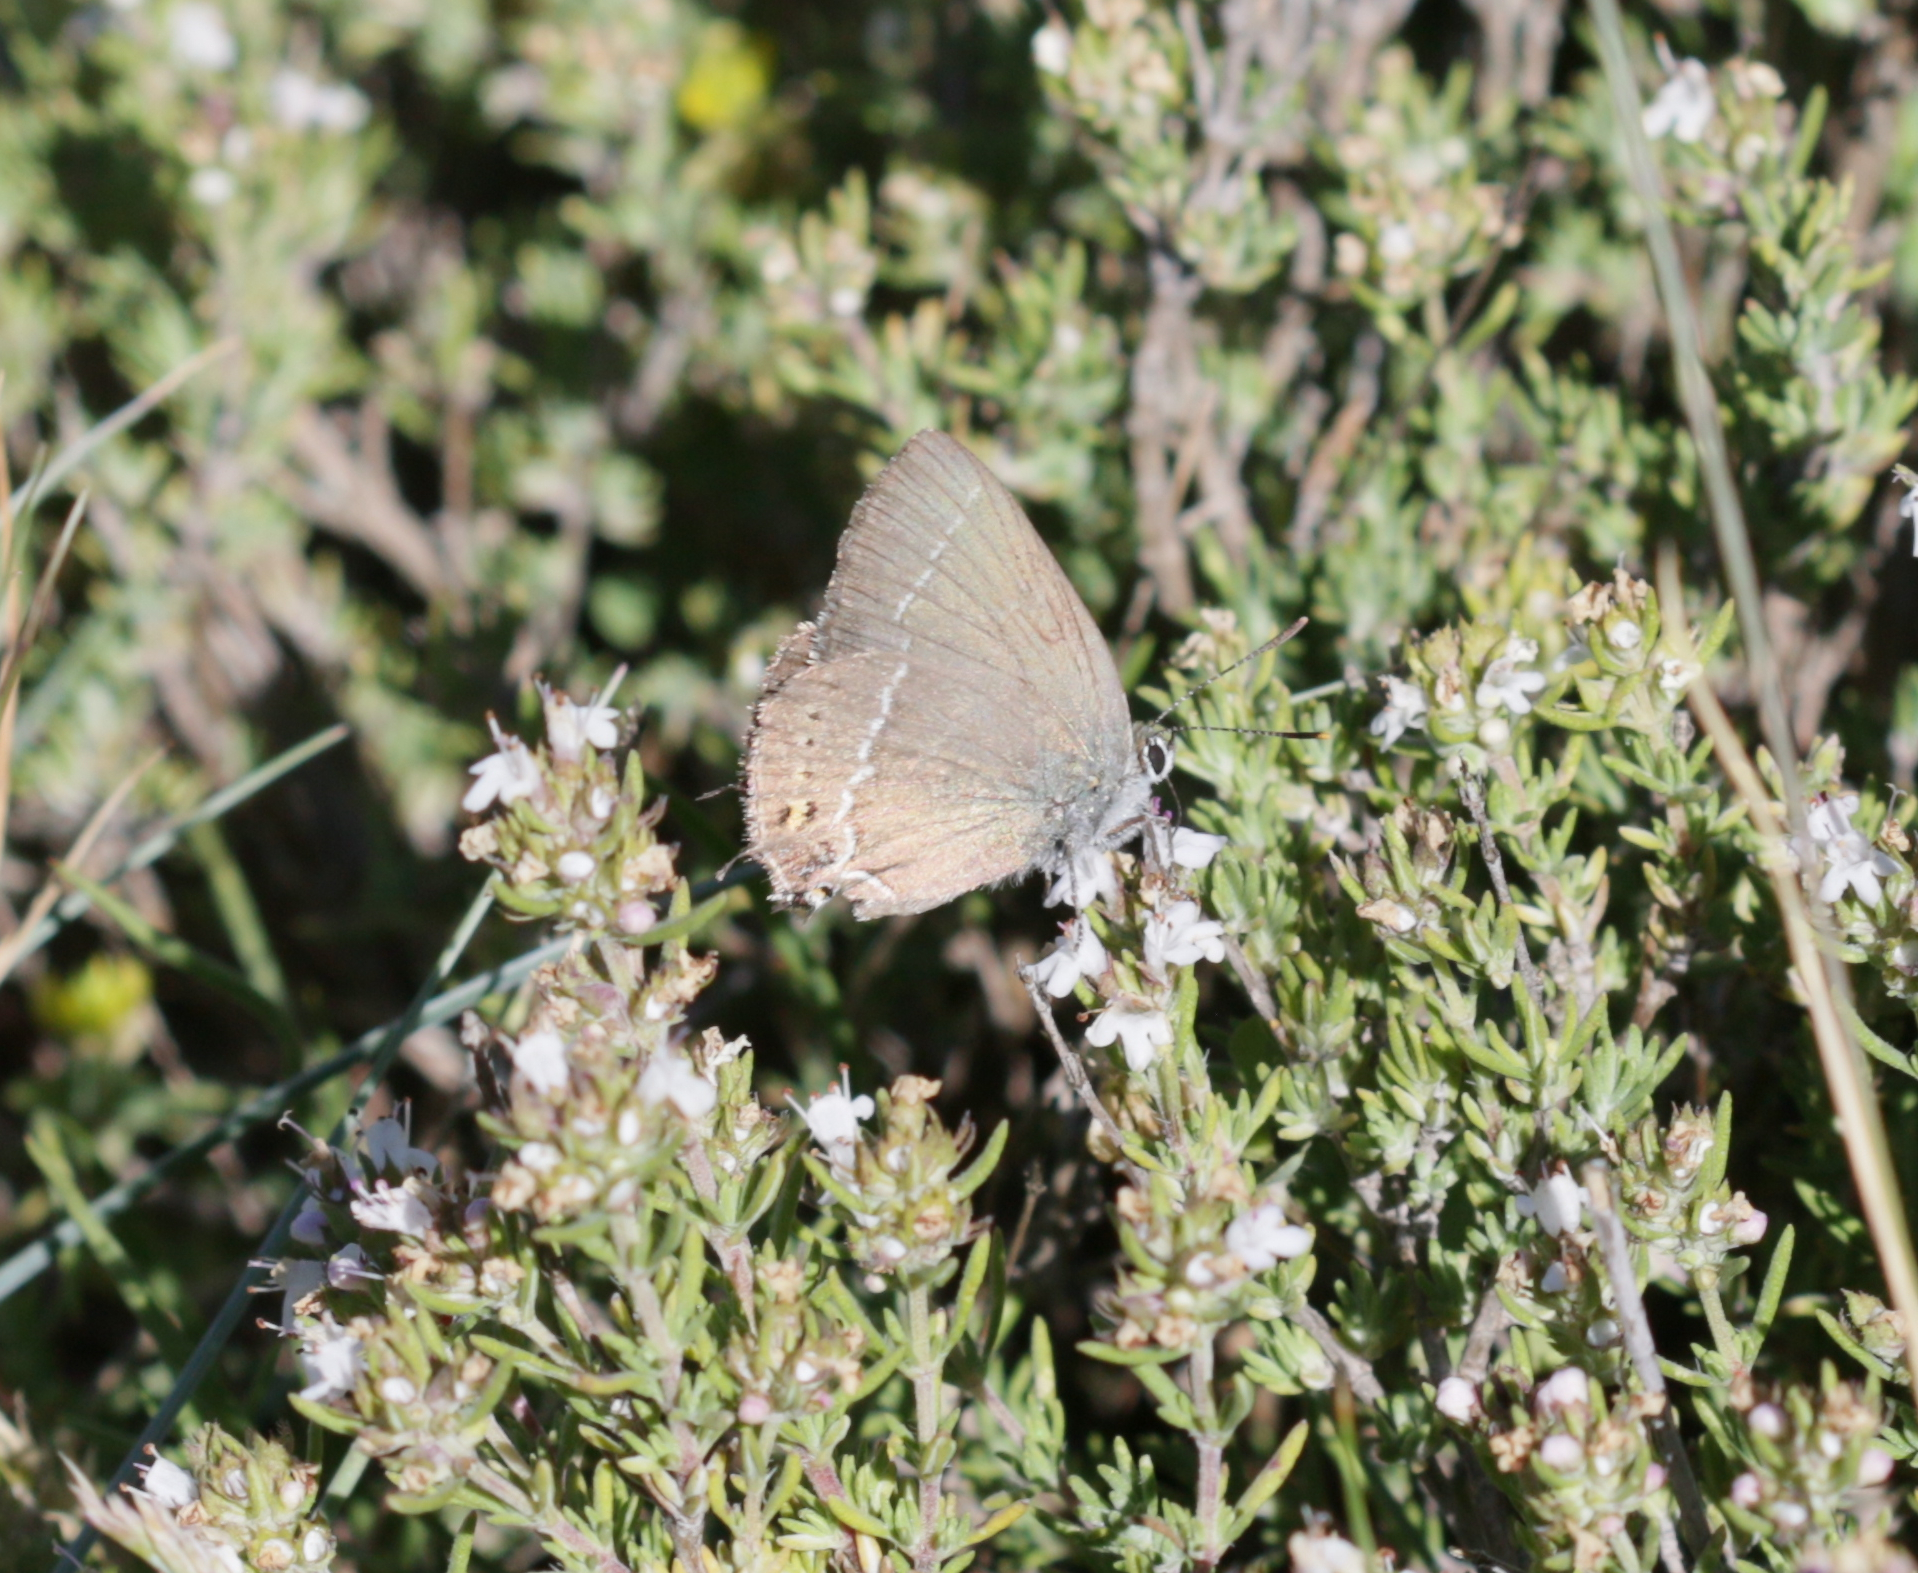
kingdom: Animalia
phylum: Arthropoda
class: Insecta
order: Lepidoptera
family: Lycaenidae
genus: Tuttiola
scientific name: Tuttiola spini
